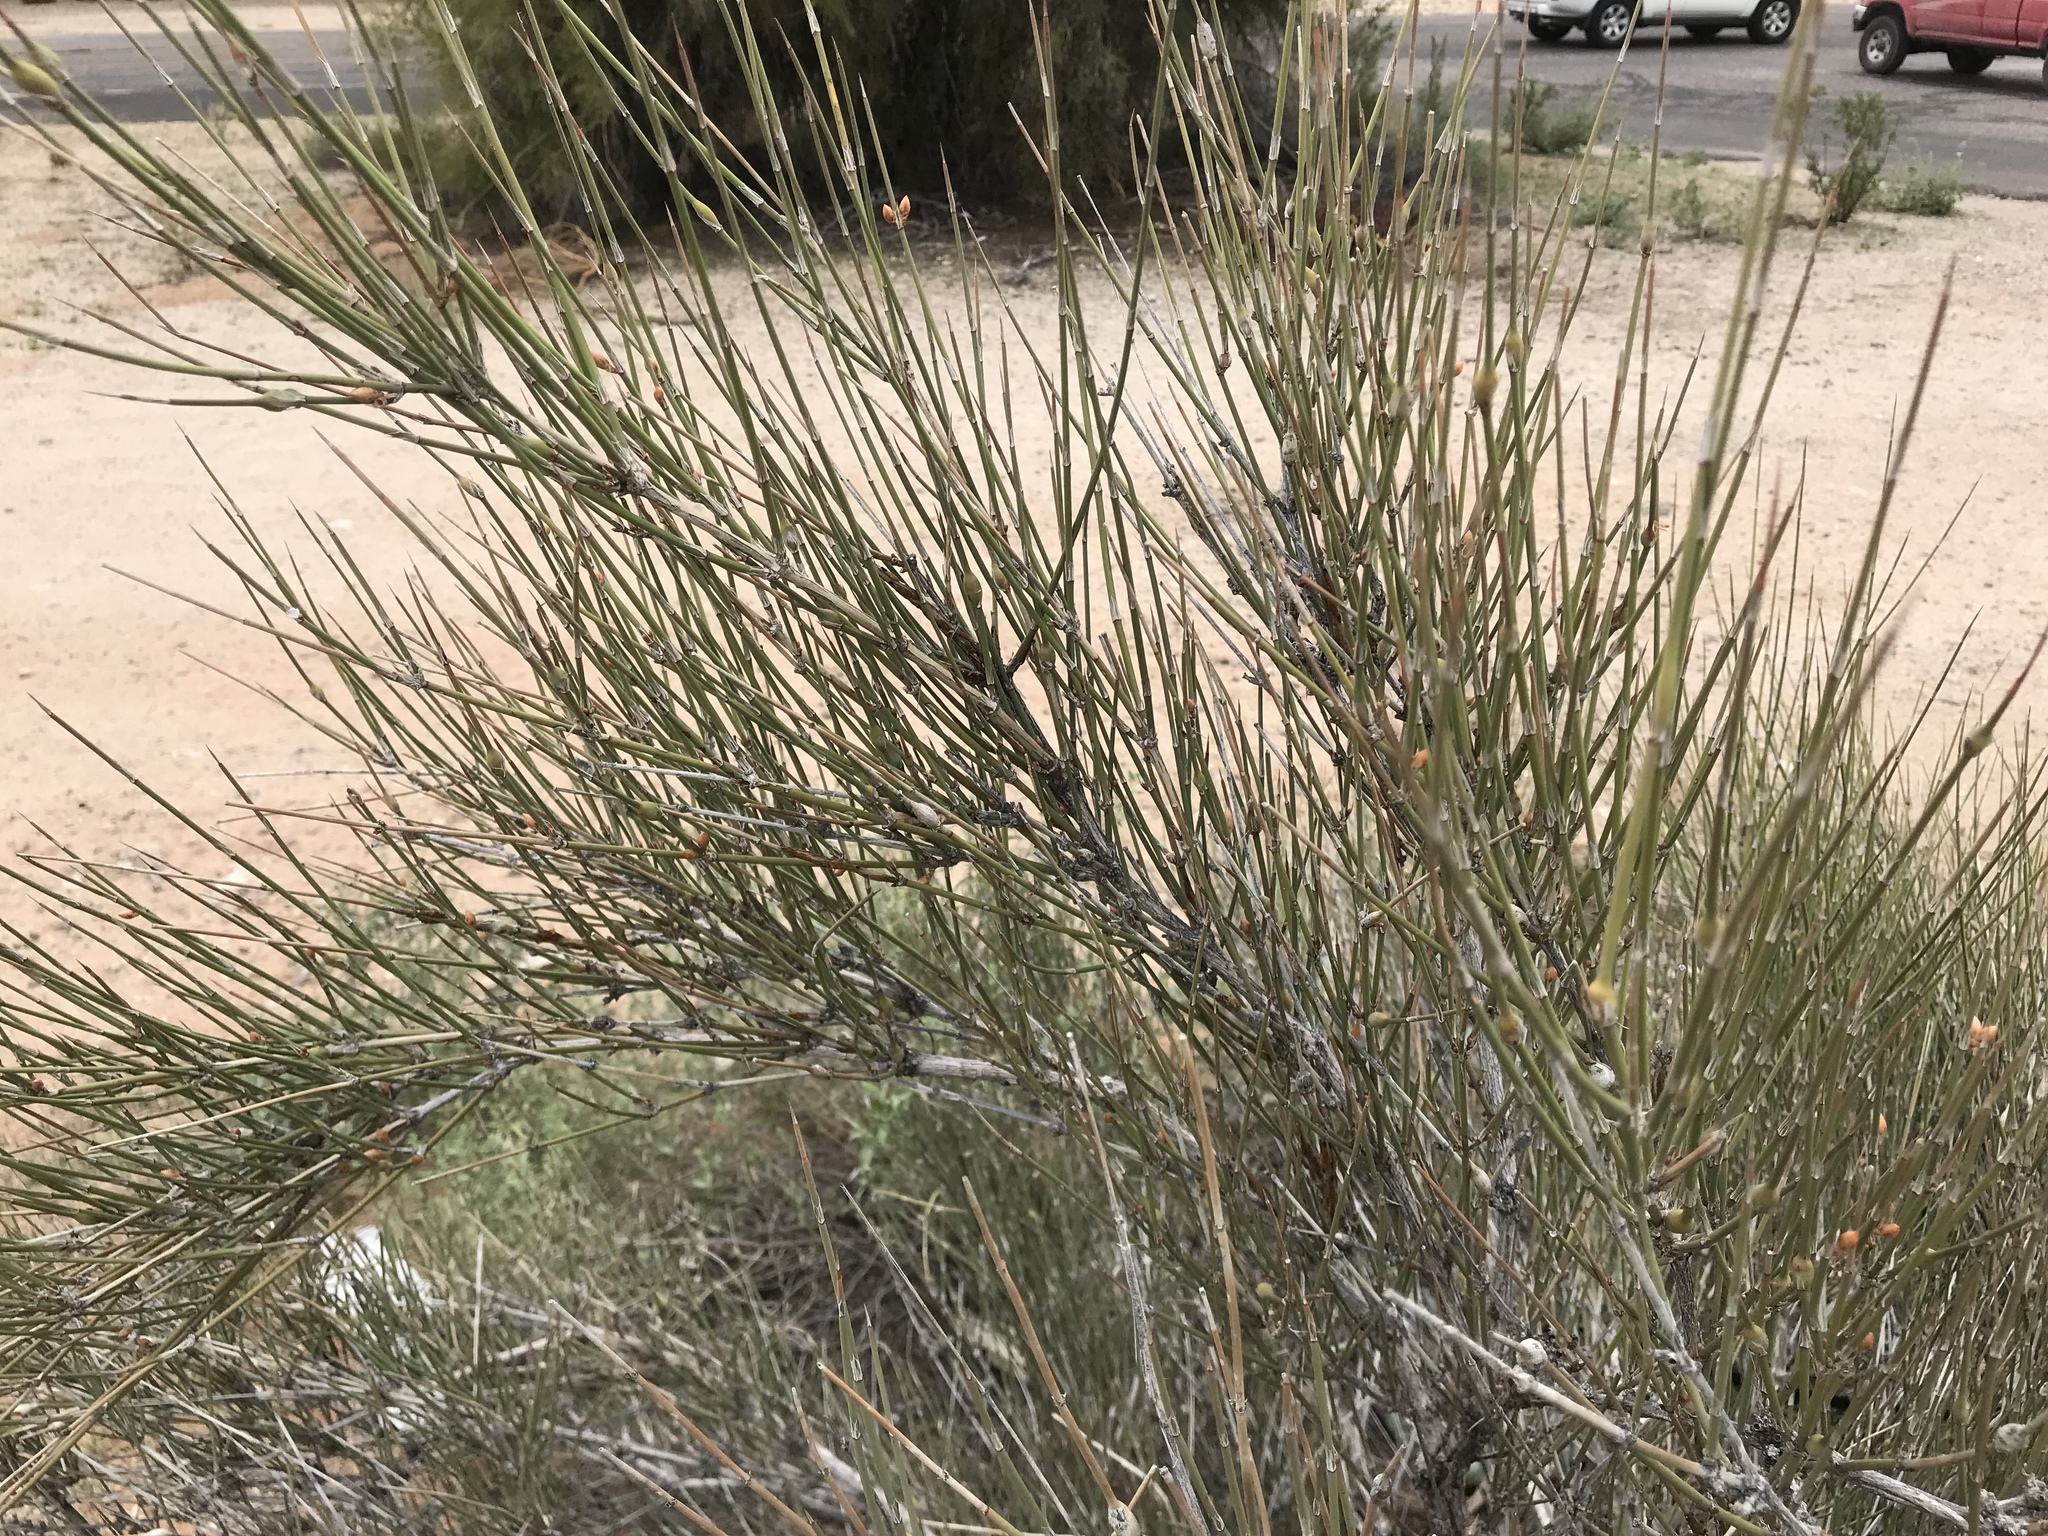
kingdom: Plantae
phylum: Tracheophyta
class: Gnetopsida
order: Ephedrales
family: Ephedraceae
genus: Ephedra
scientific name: Ephedra trifurca
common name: Mexican-tea
